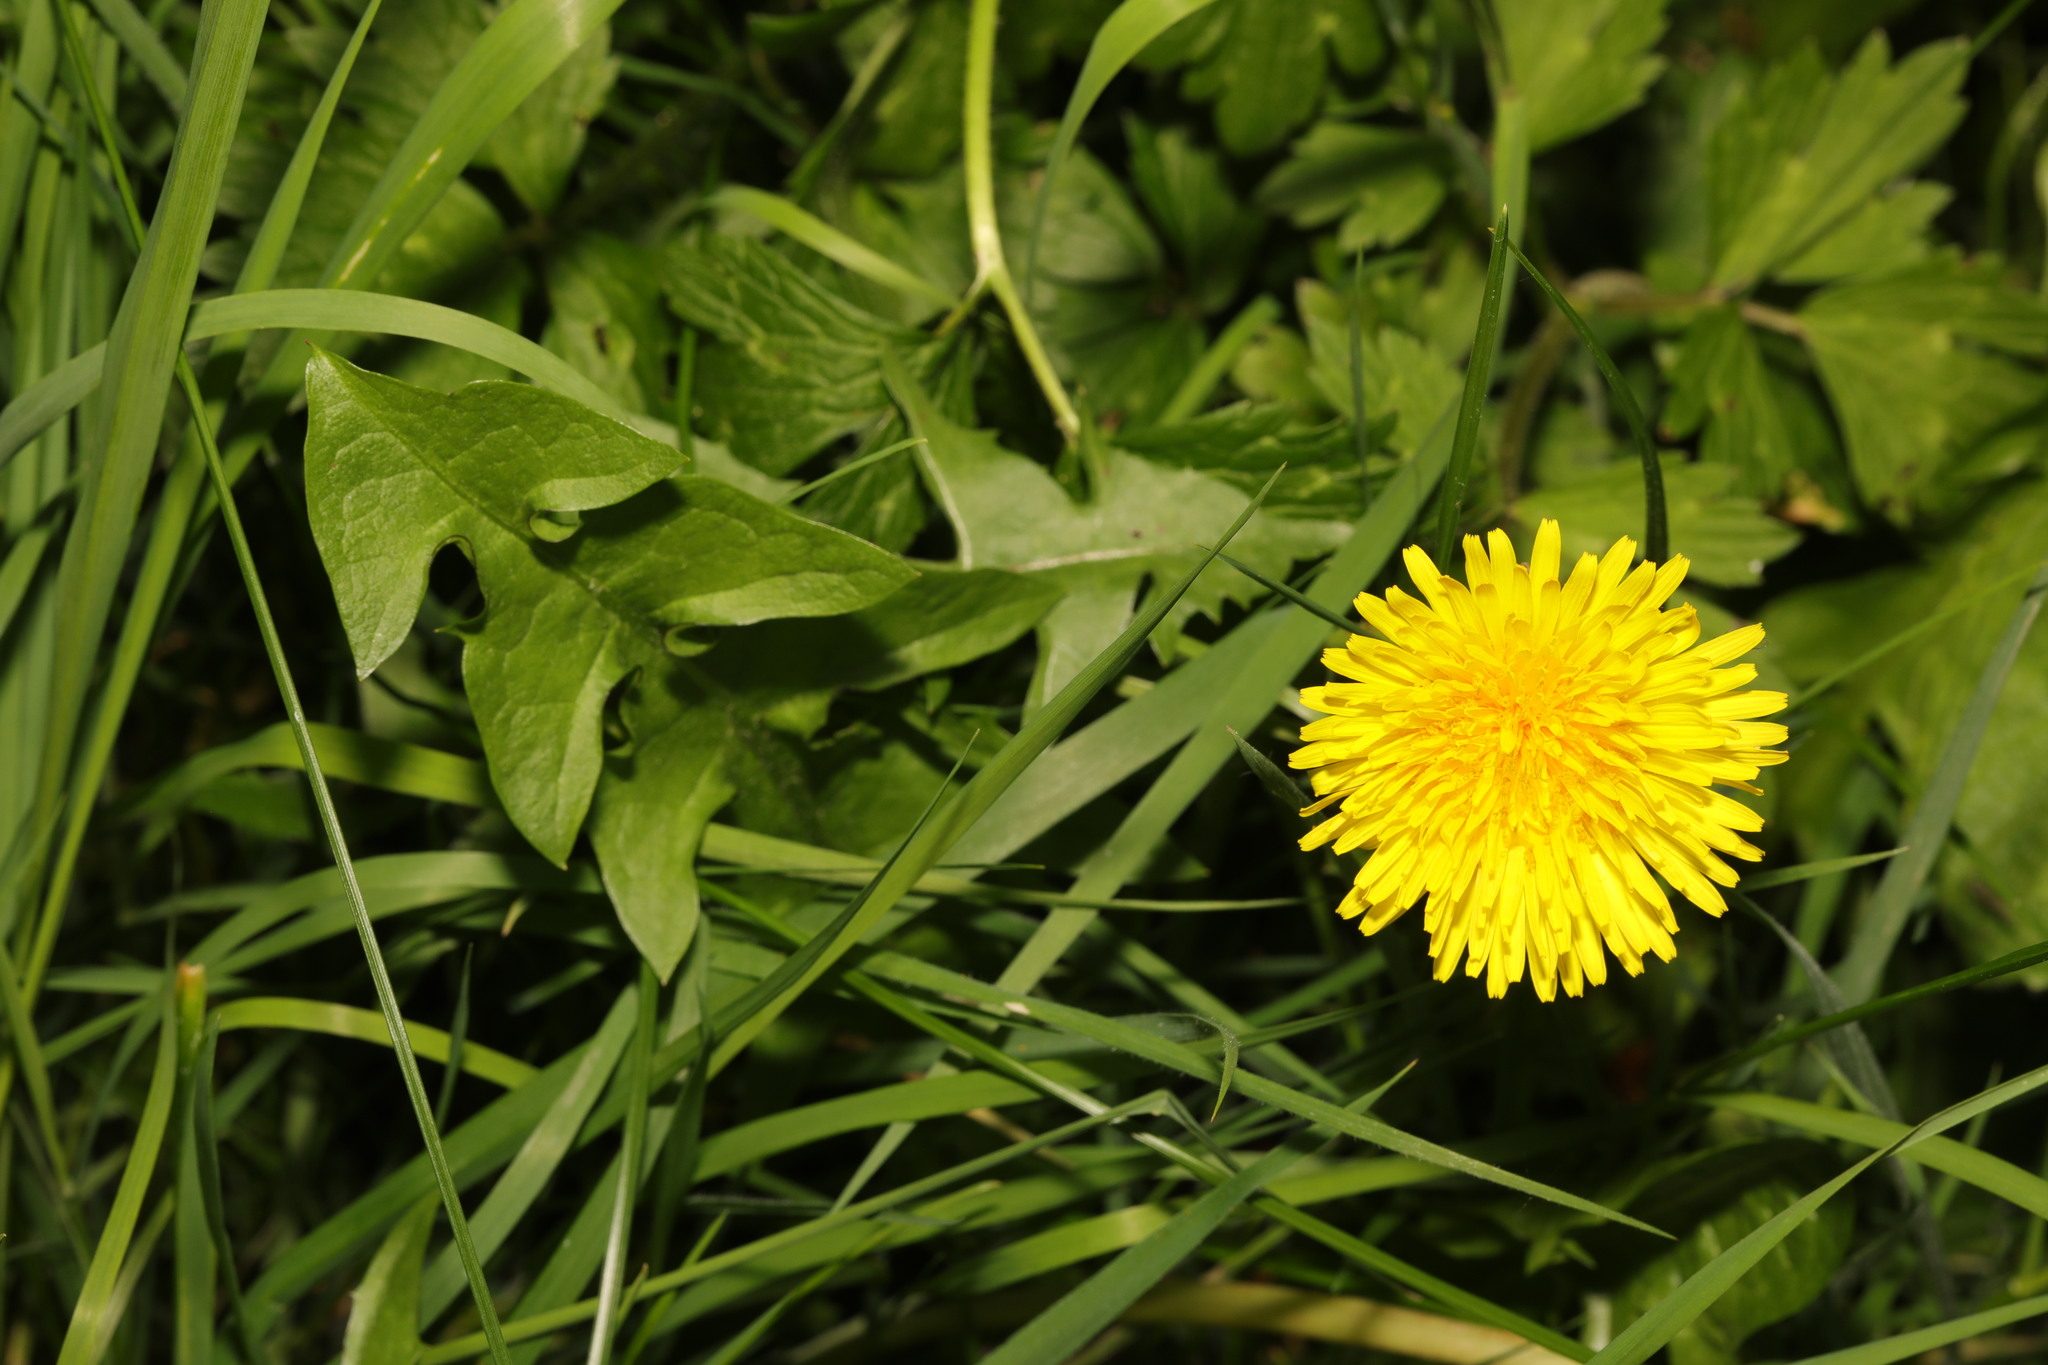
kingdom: Plantae
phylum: Tracheophyta
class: Magnoliopsida
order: Asterales
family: Asteraceae
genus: Taraxacum
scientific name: Taraxacum officinale
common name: Common dandelion
